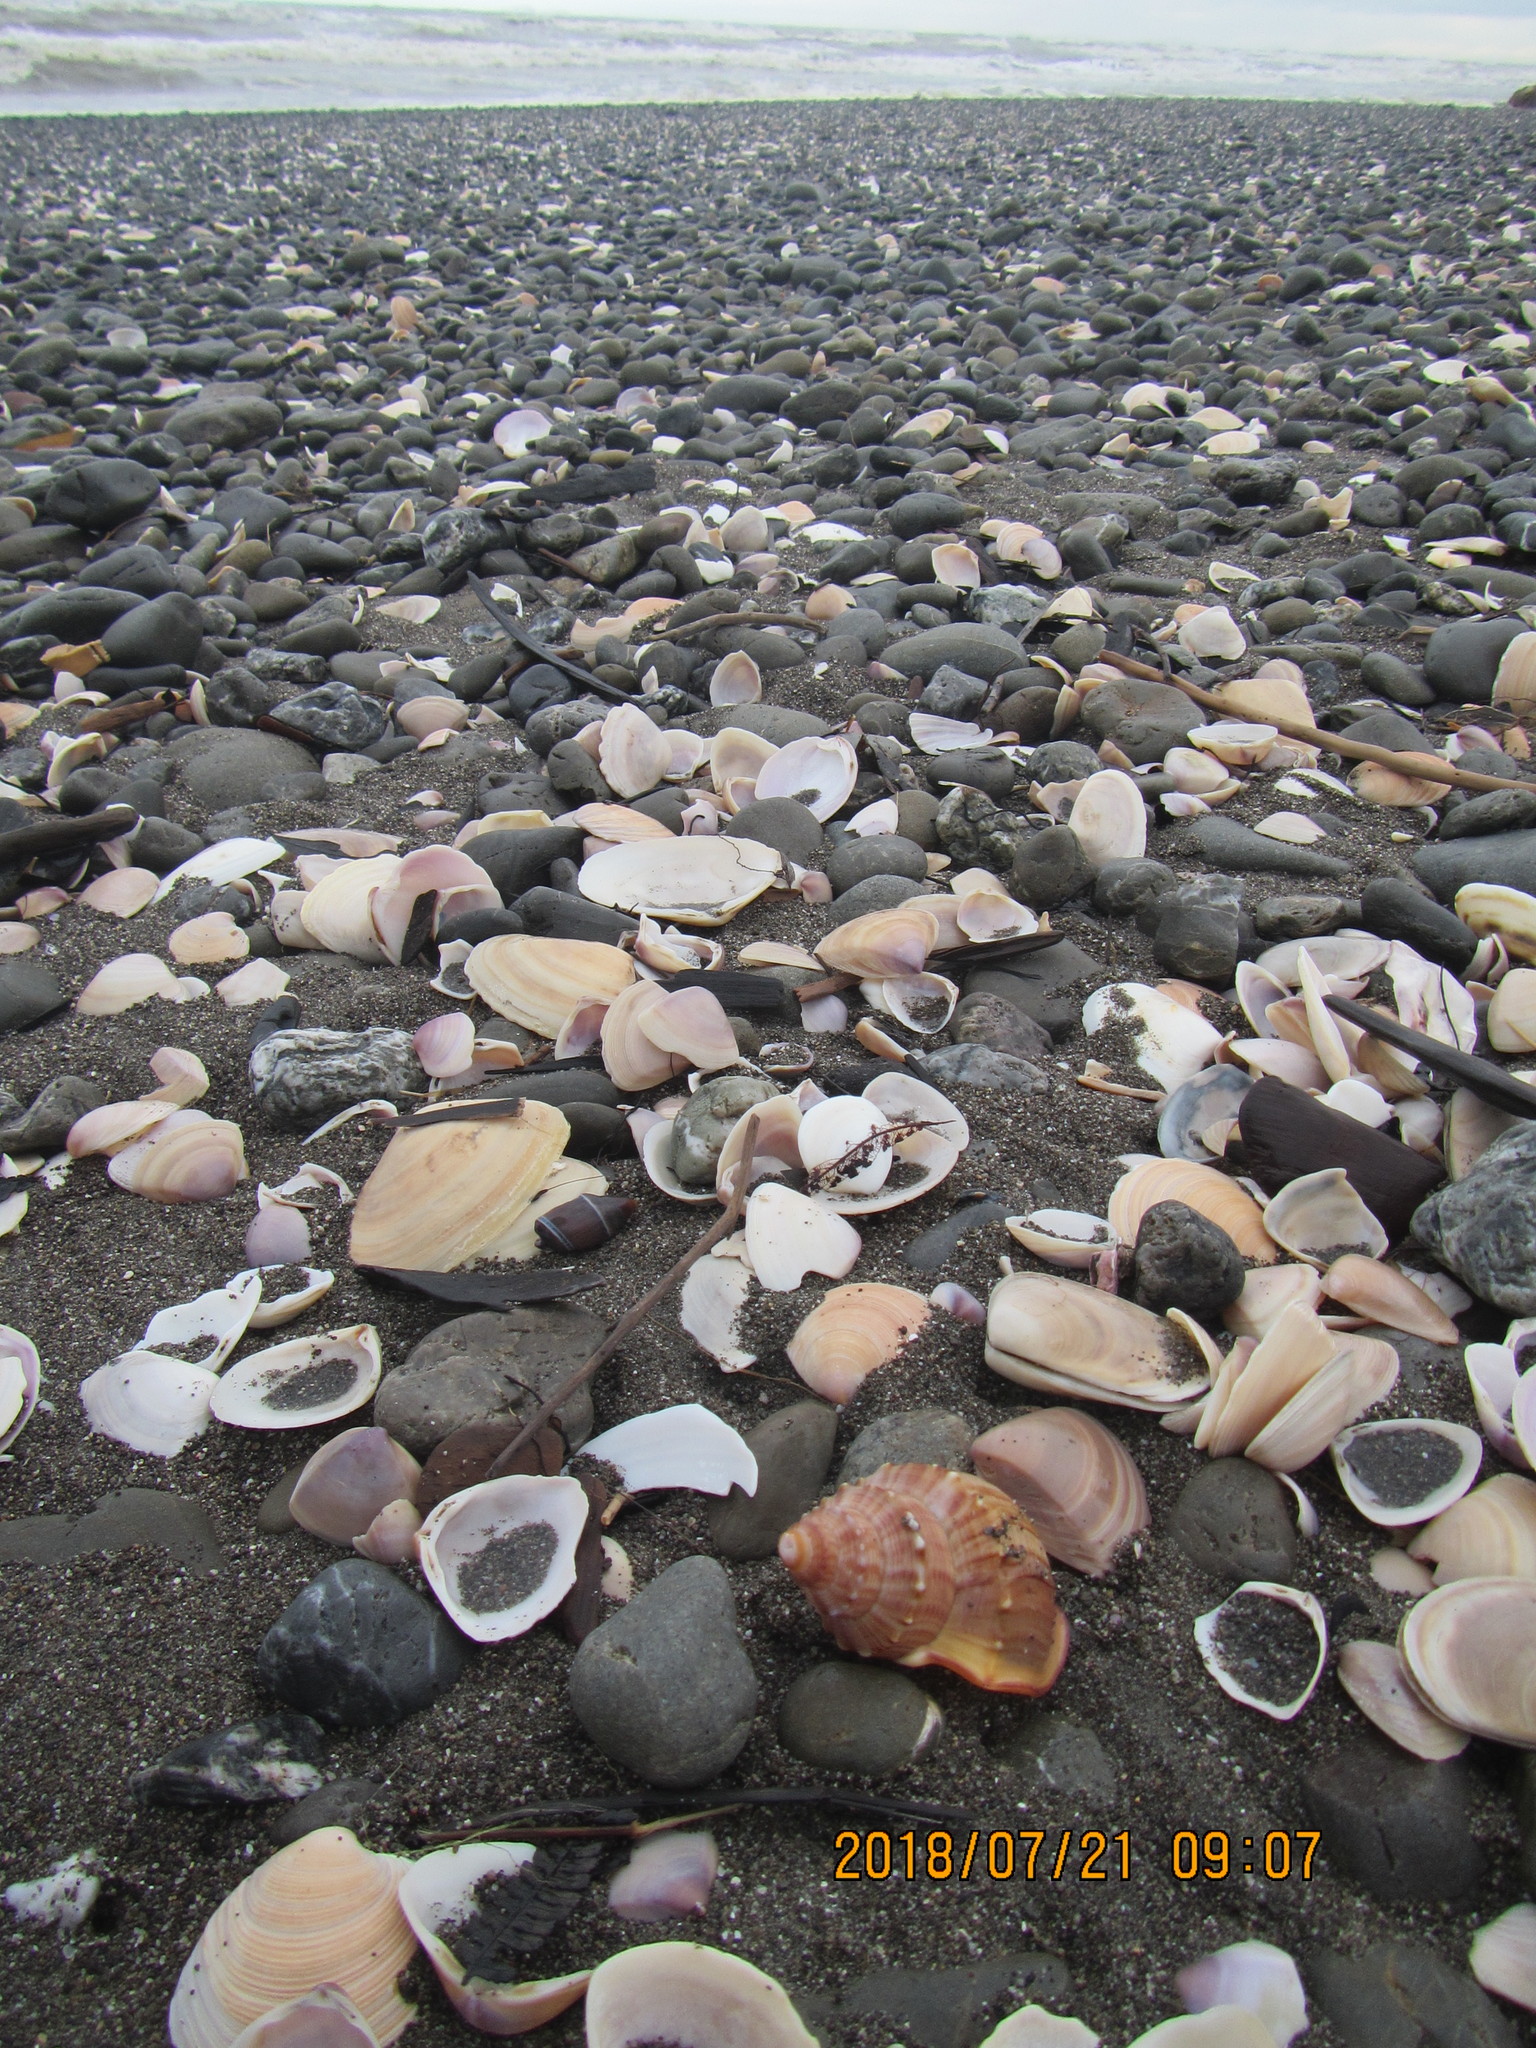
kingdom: Animalia
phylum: Mollusca
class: Gastropoda
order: Littorinimorpha
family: Struthiolariidae
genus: Struthiolaria
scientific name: Struthiolaria papulosa
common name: Large ostrich foot
